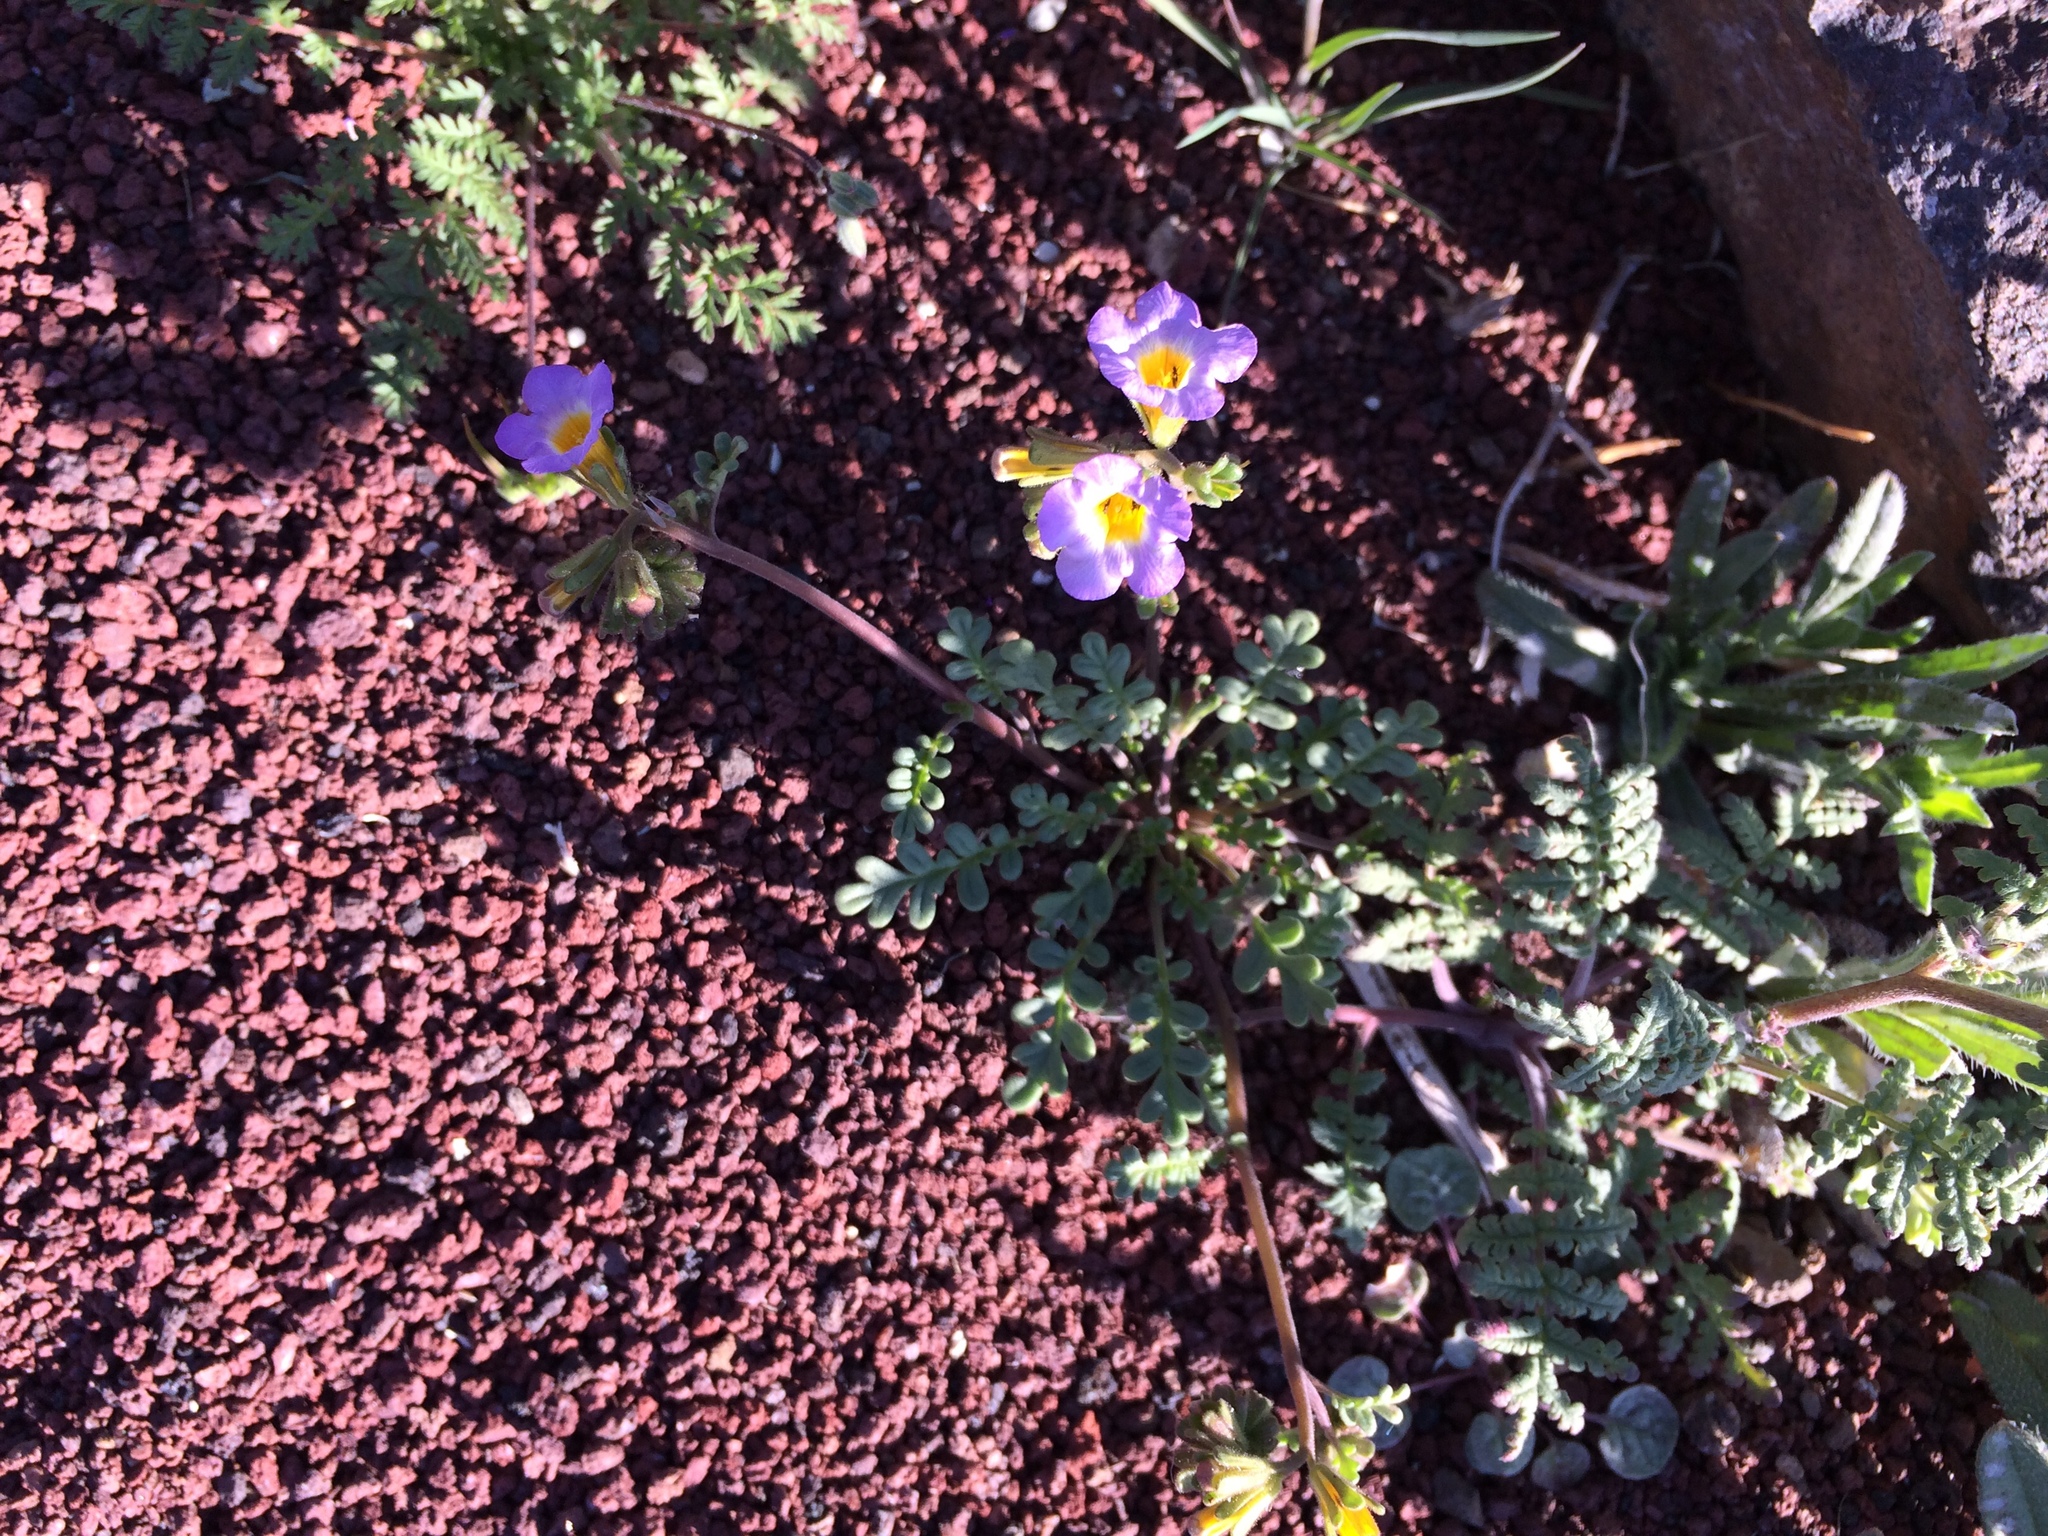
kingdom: Plantae
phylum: Tracheophyta
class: Magnoliopsida
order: Boraginales
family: Hydrophyllaceae
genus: Phacelia
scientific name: Phacelia fremontii
